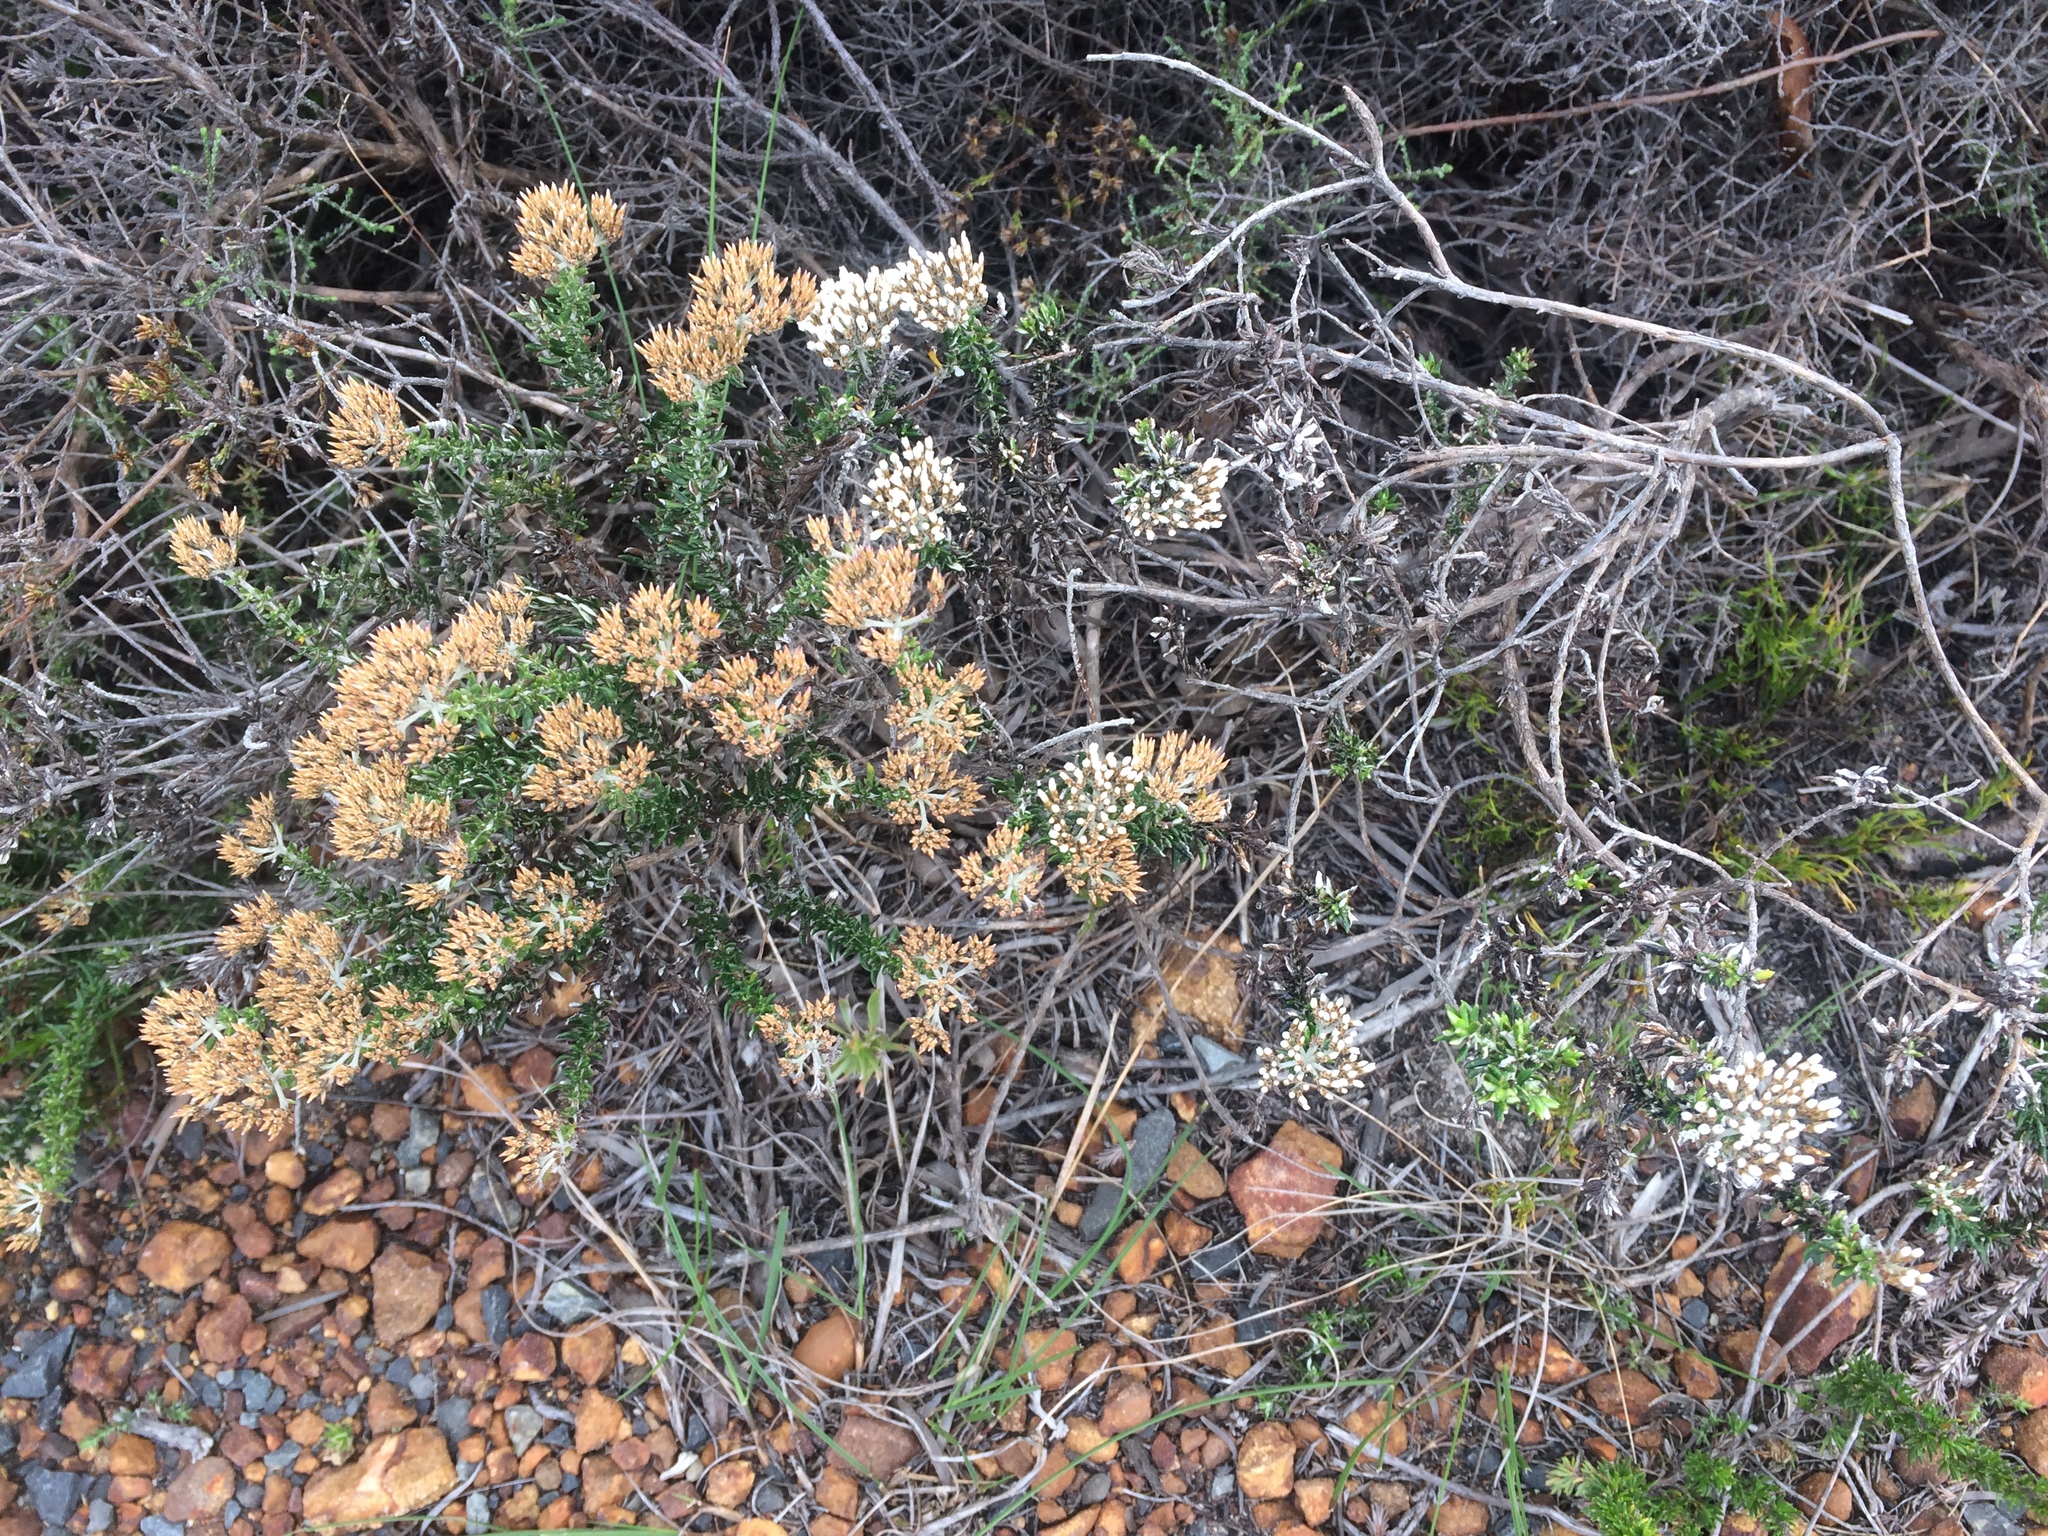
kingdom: Plantae
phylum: Tracheophyta
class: Magnoliopsida
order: Asterales
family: Asteraceae
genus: Metalasia
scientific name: Metalasia densa
